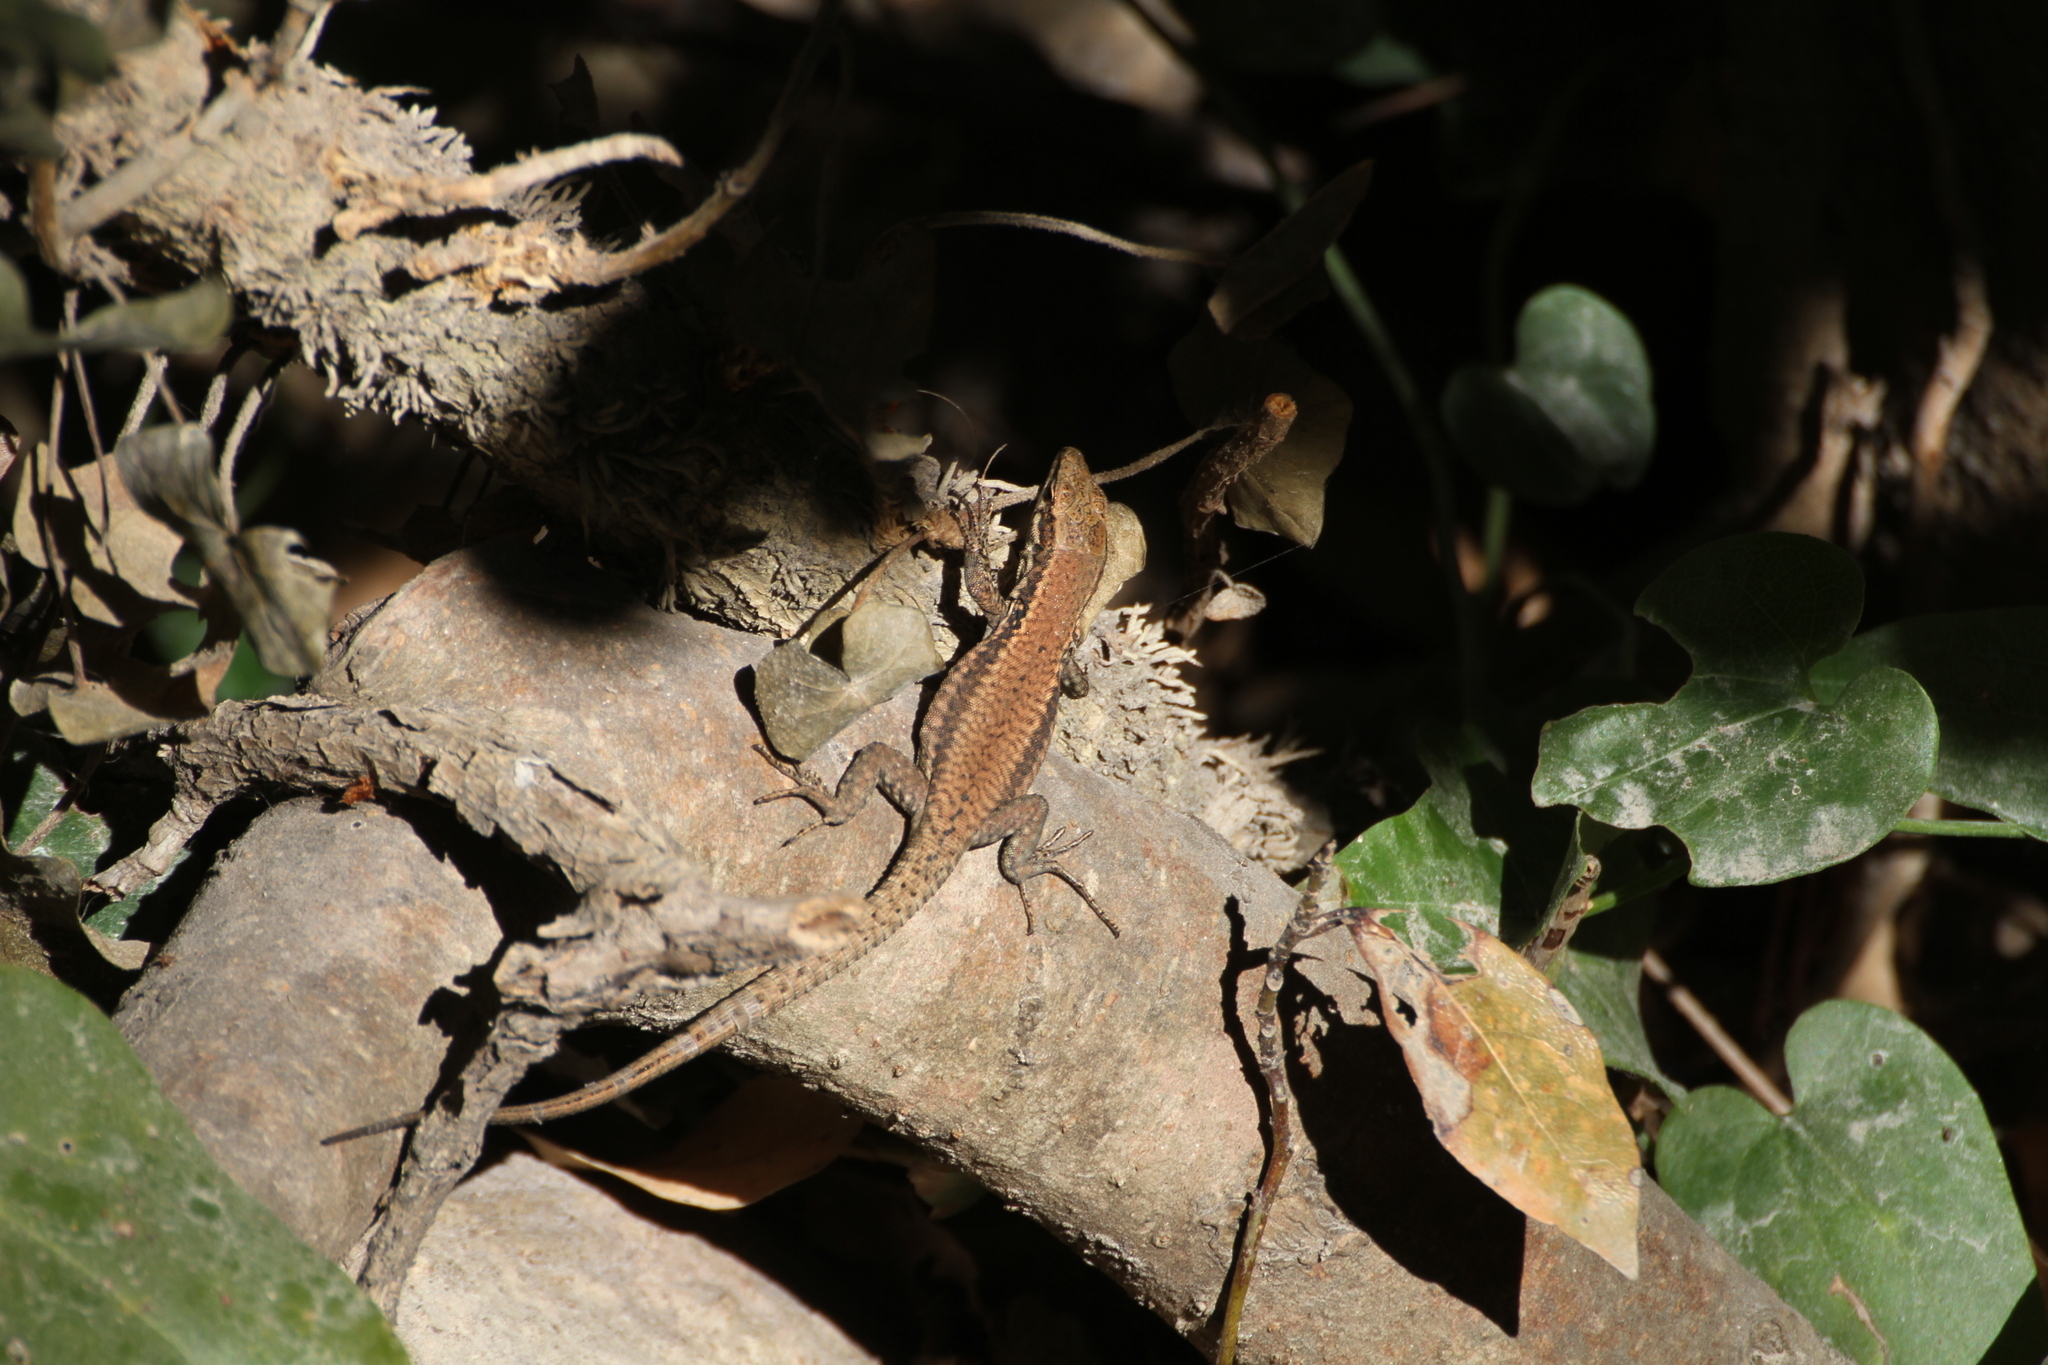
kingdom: Animalia
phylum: Chordata
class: Squamata
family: Lacertidae
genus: Podarcis
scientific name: Podarcis muralis
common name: Common wall lizard
